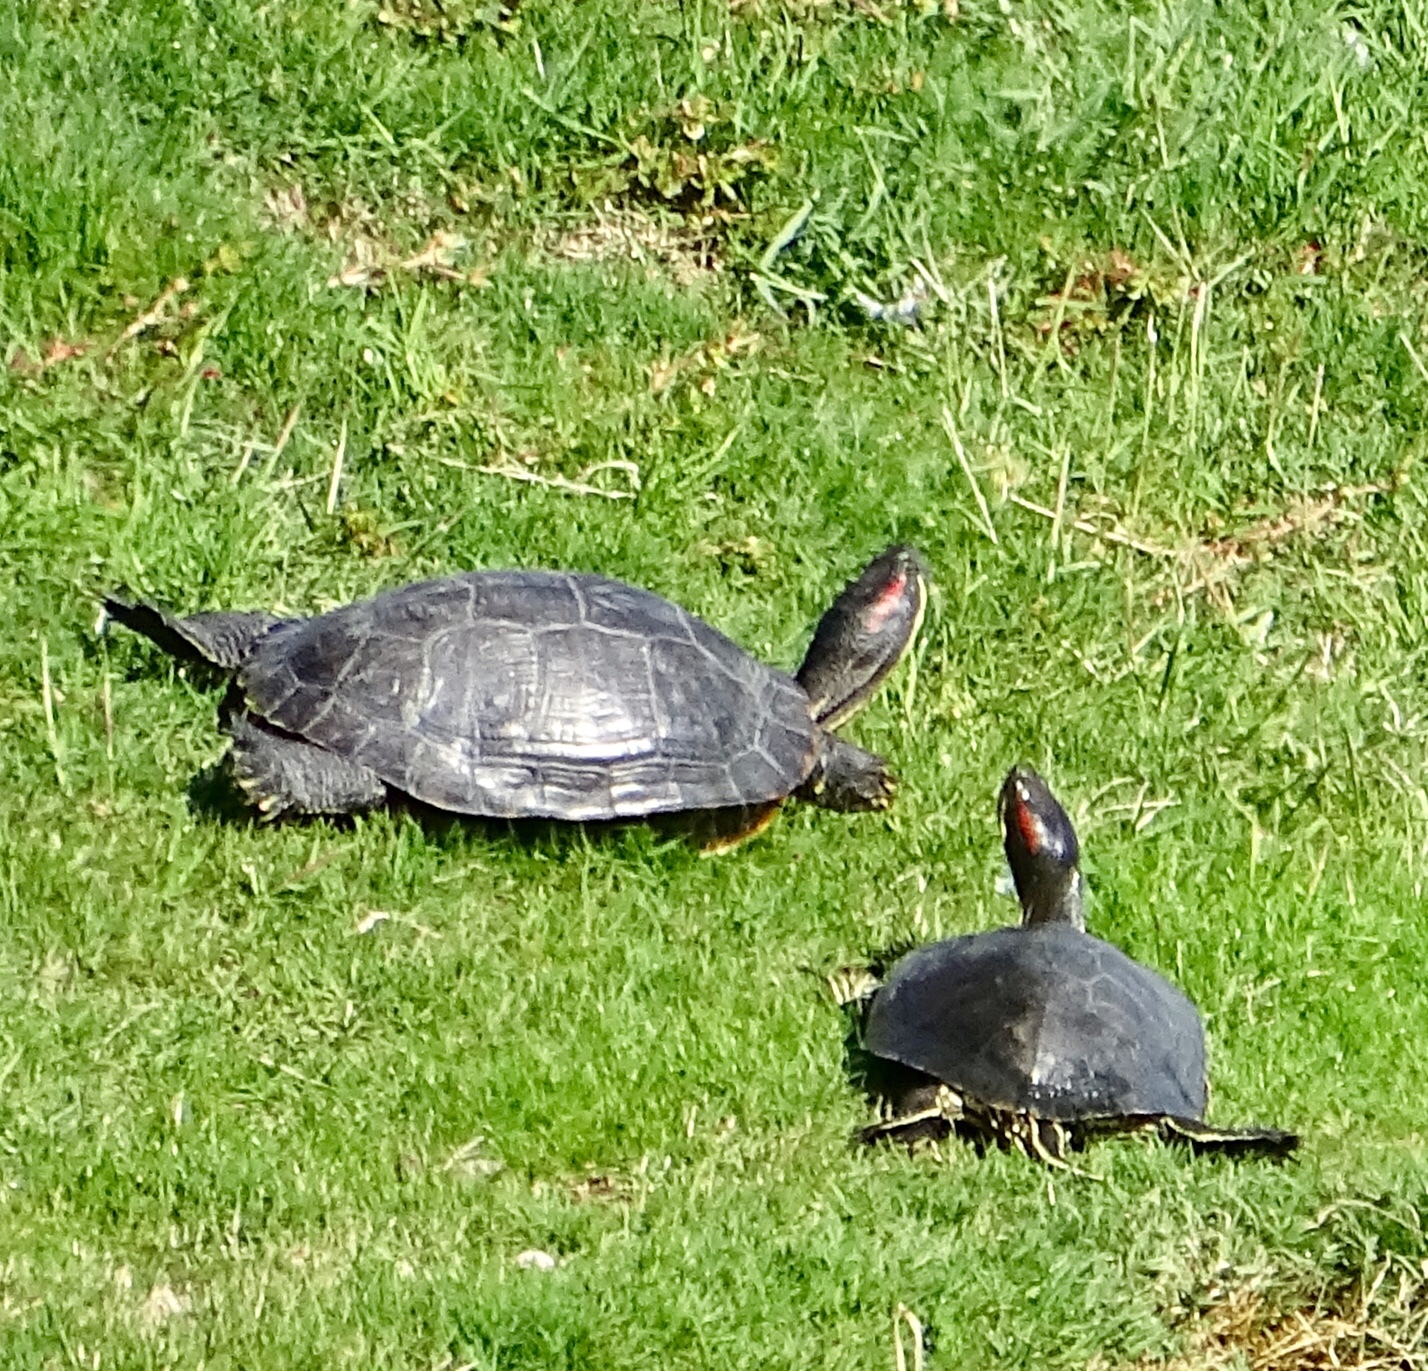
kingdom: Animalia
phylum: Chordata
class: Testudines
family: Emydidae
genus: Trachemys
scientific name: Trachemys scripta
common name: Slider
